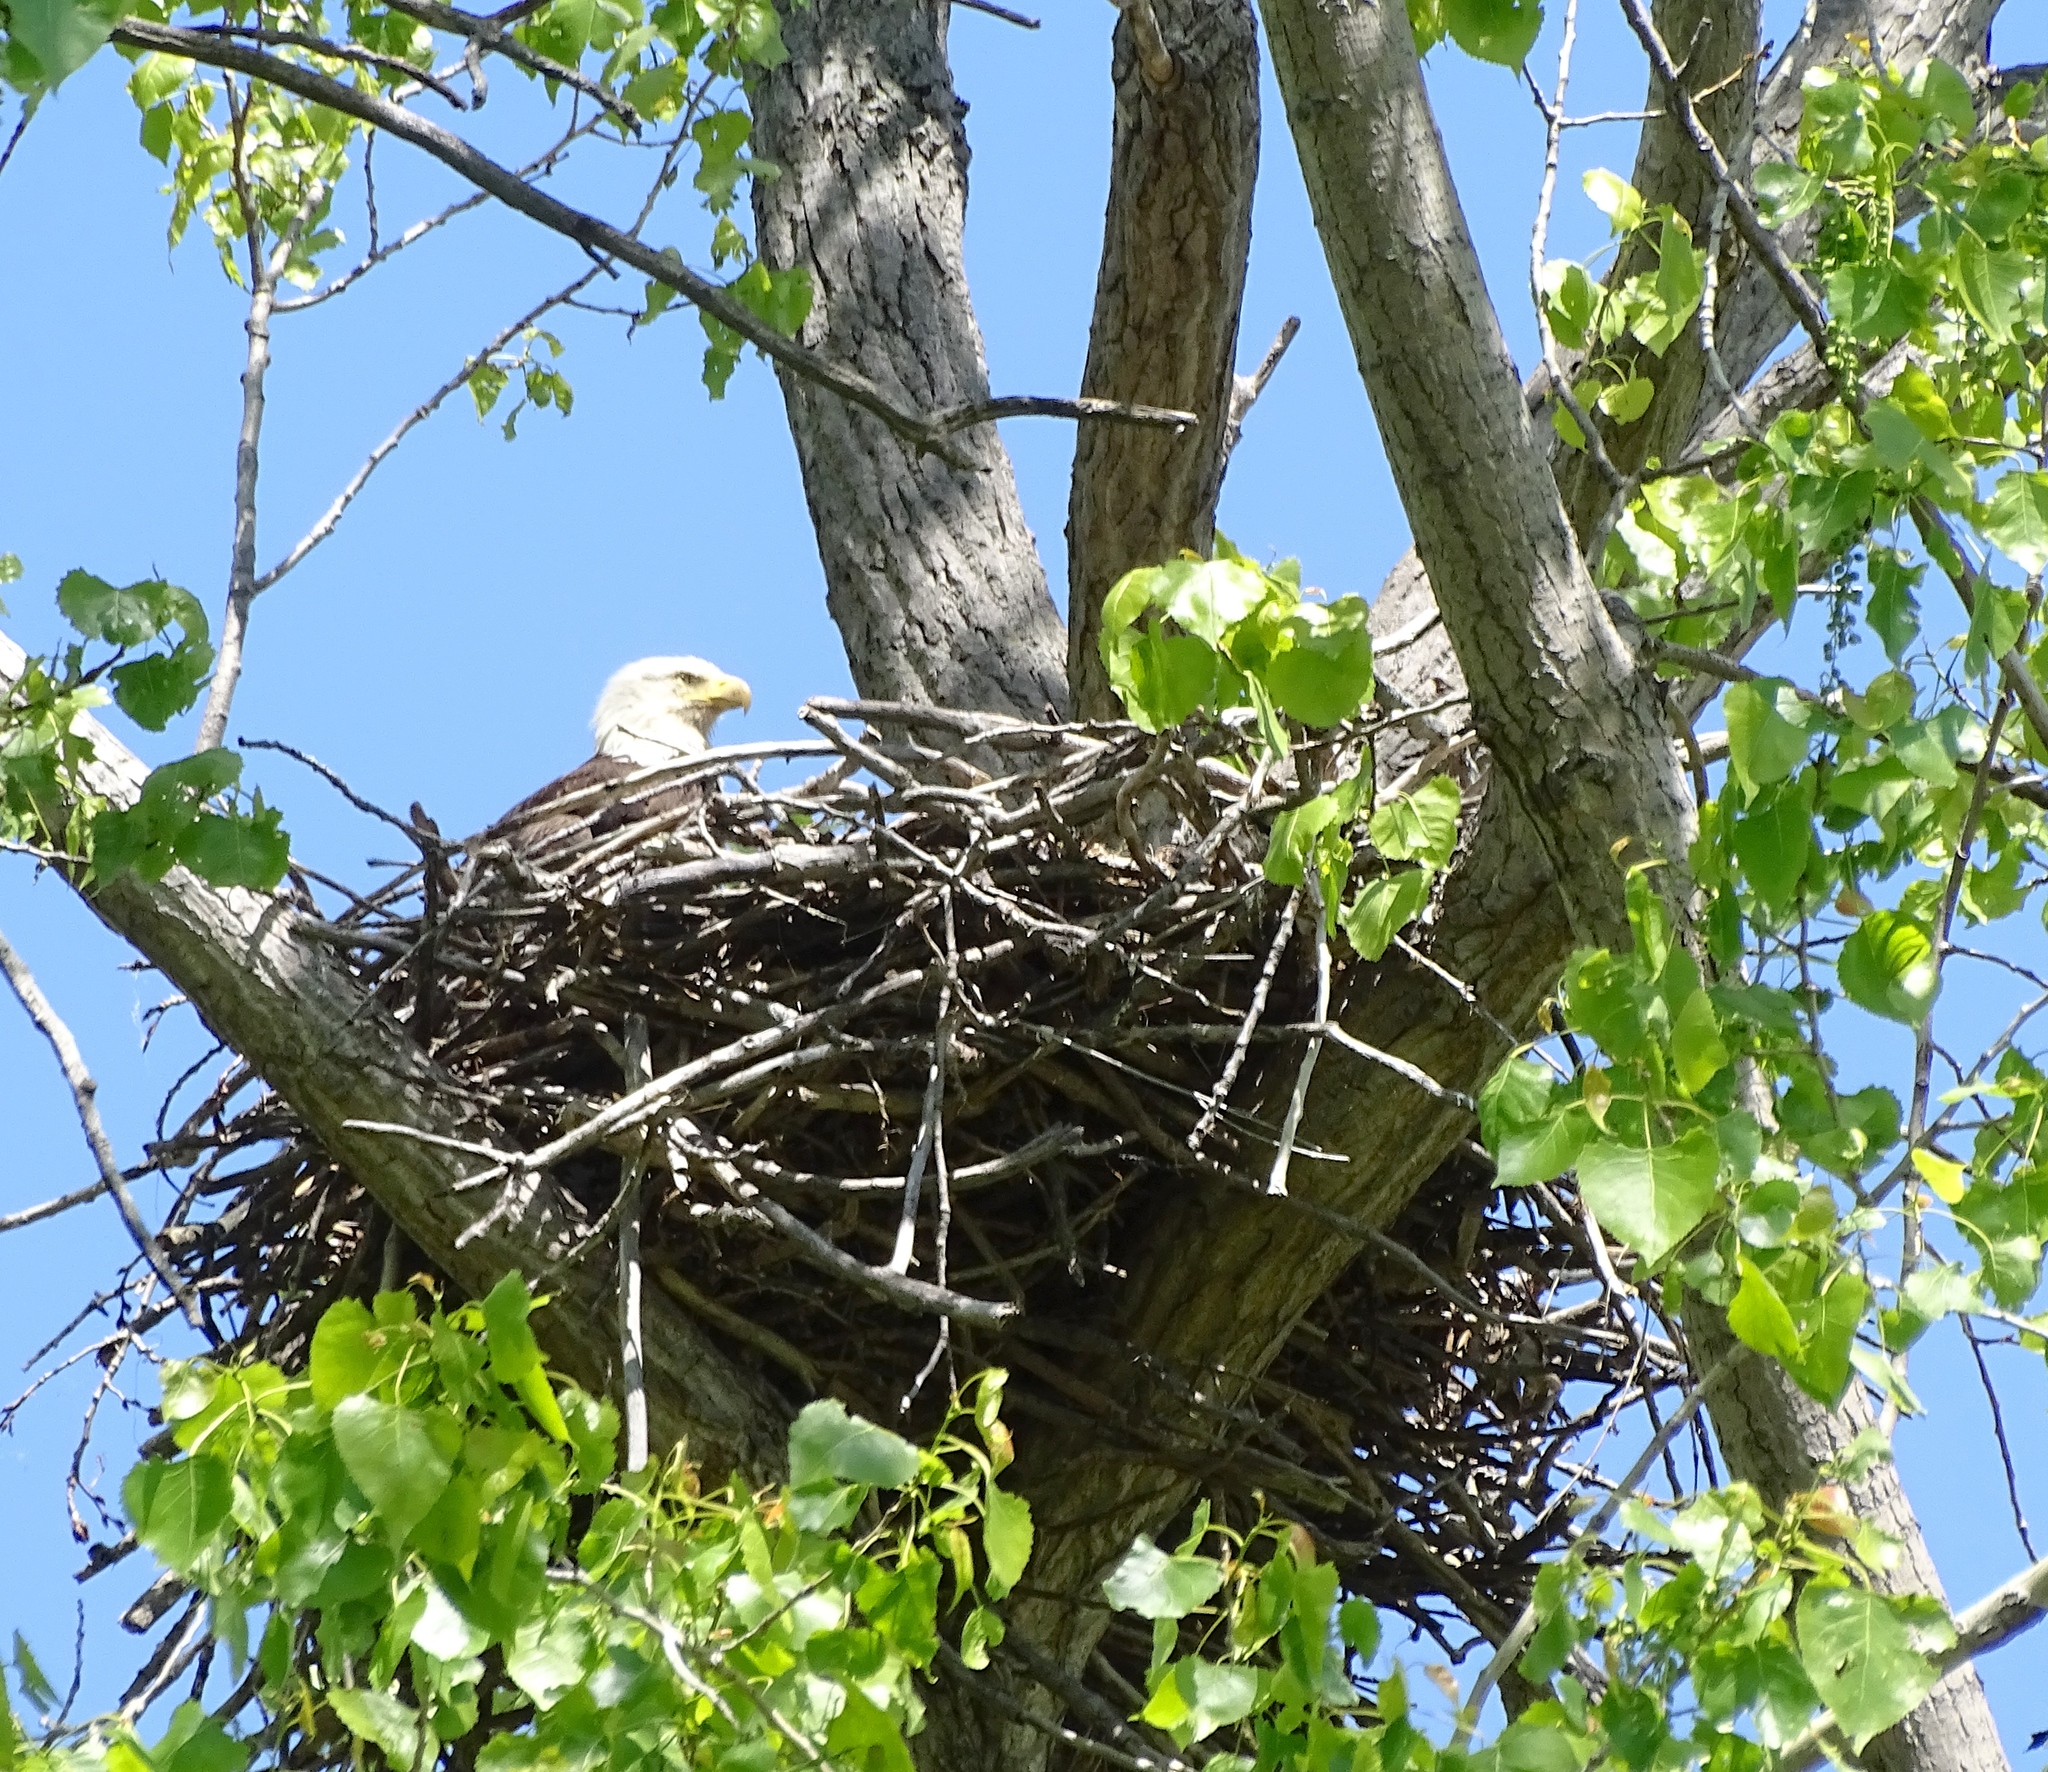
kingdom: Animalia
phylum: Chordata
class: Aves
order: Accipitriformes
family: Accipitridae
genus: Haliaeetus
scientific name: Haliaeetus leucocephalus
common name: Bald eagle
